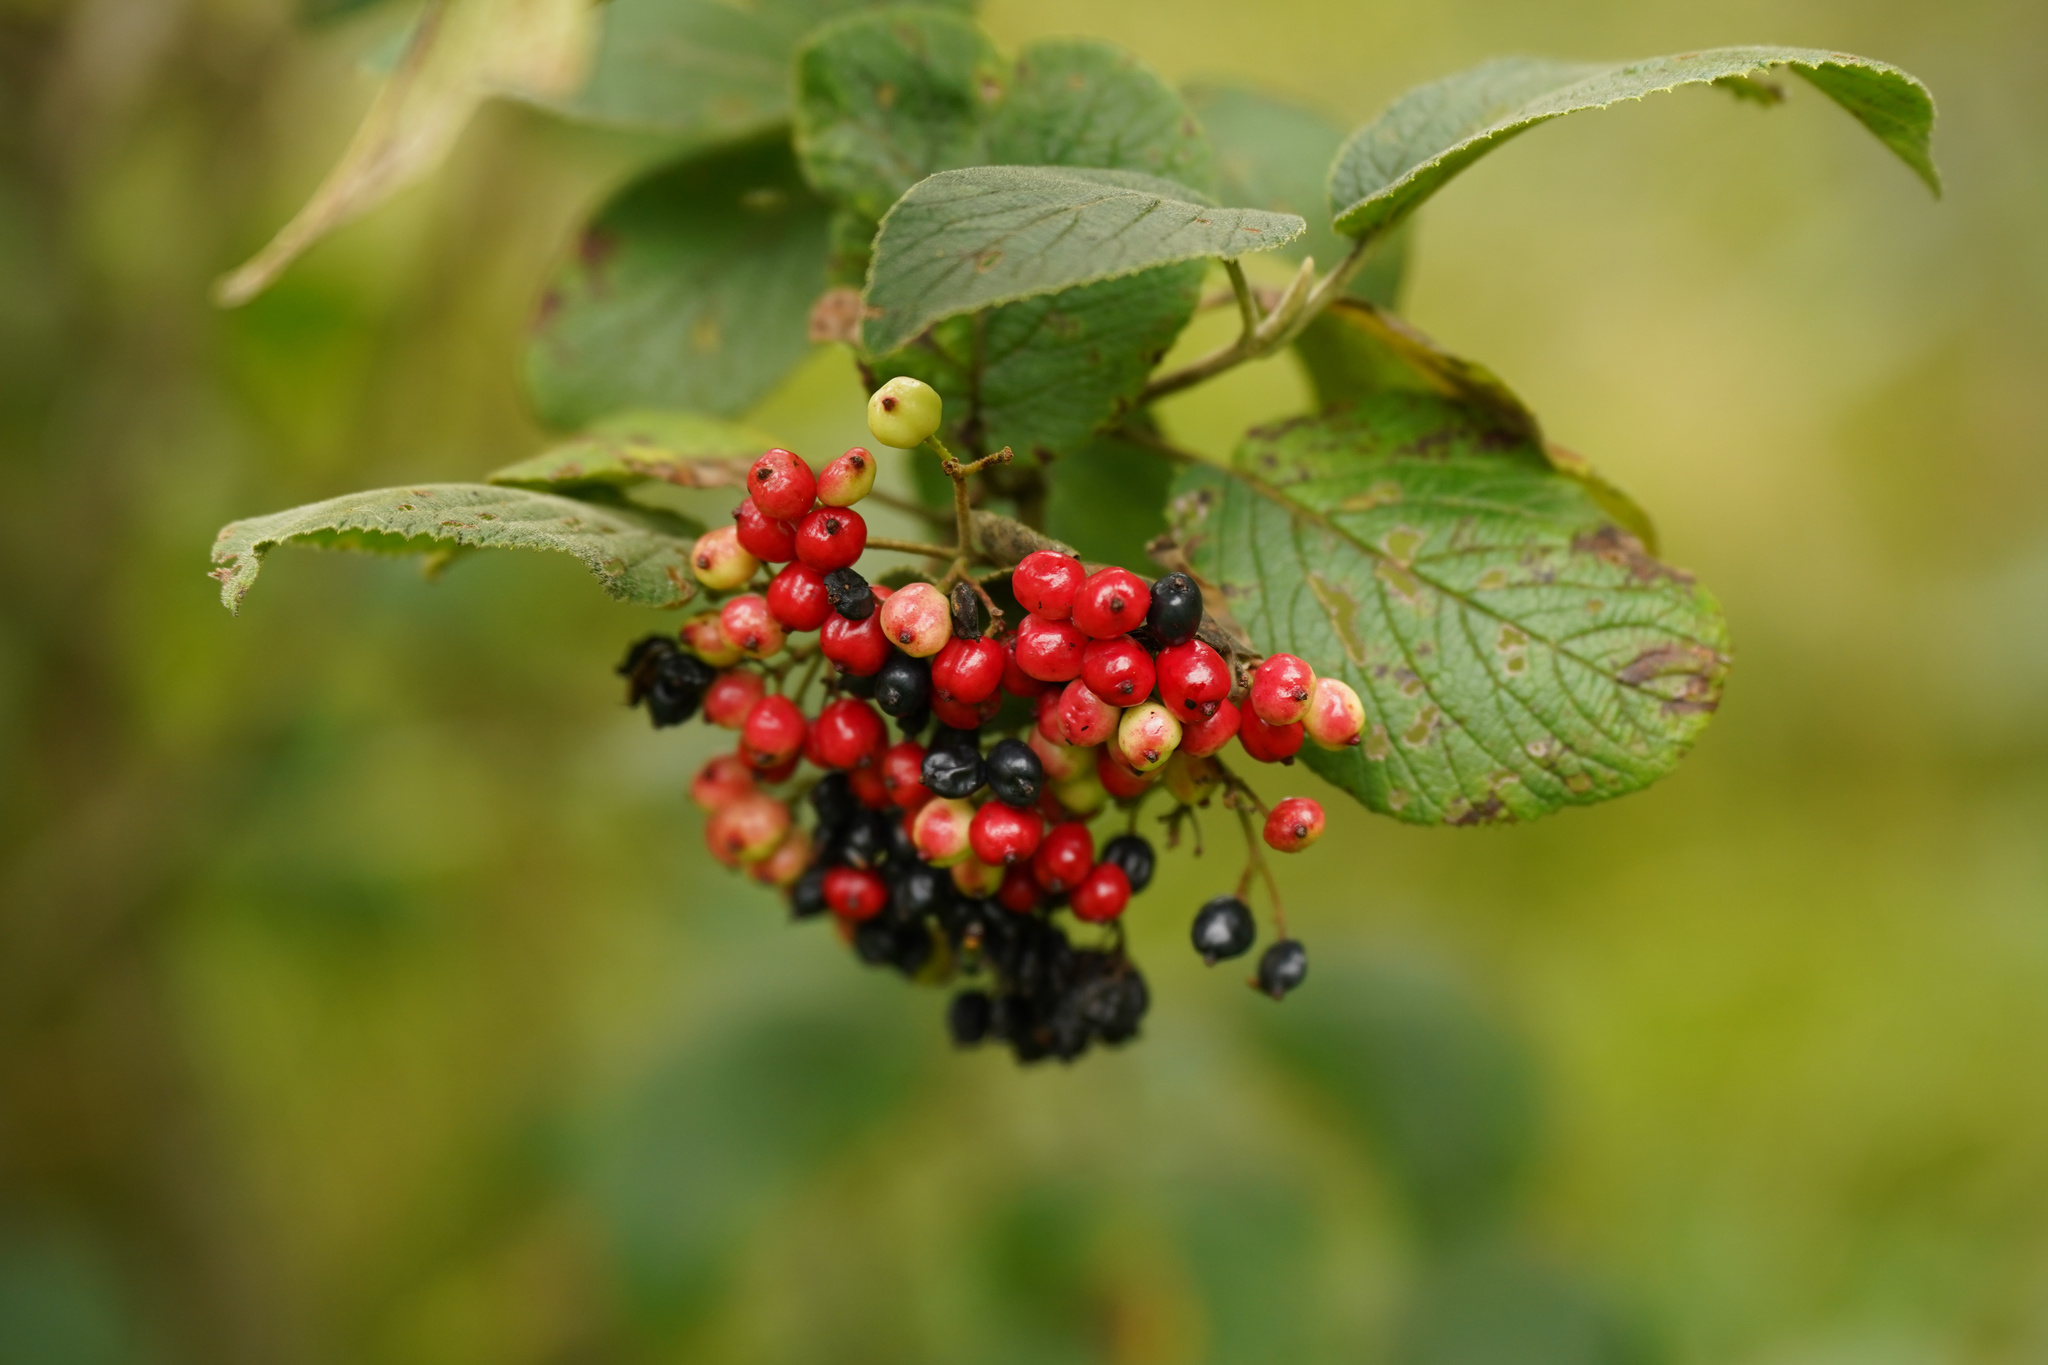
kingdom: Plantae
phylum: Tracheophyta
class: Magnoliopsida
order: Dipsacales
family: Viburnaceae
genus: Viburnum
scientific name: Viburnum lantana
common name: Wayfaring tree
